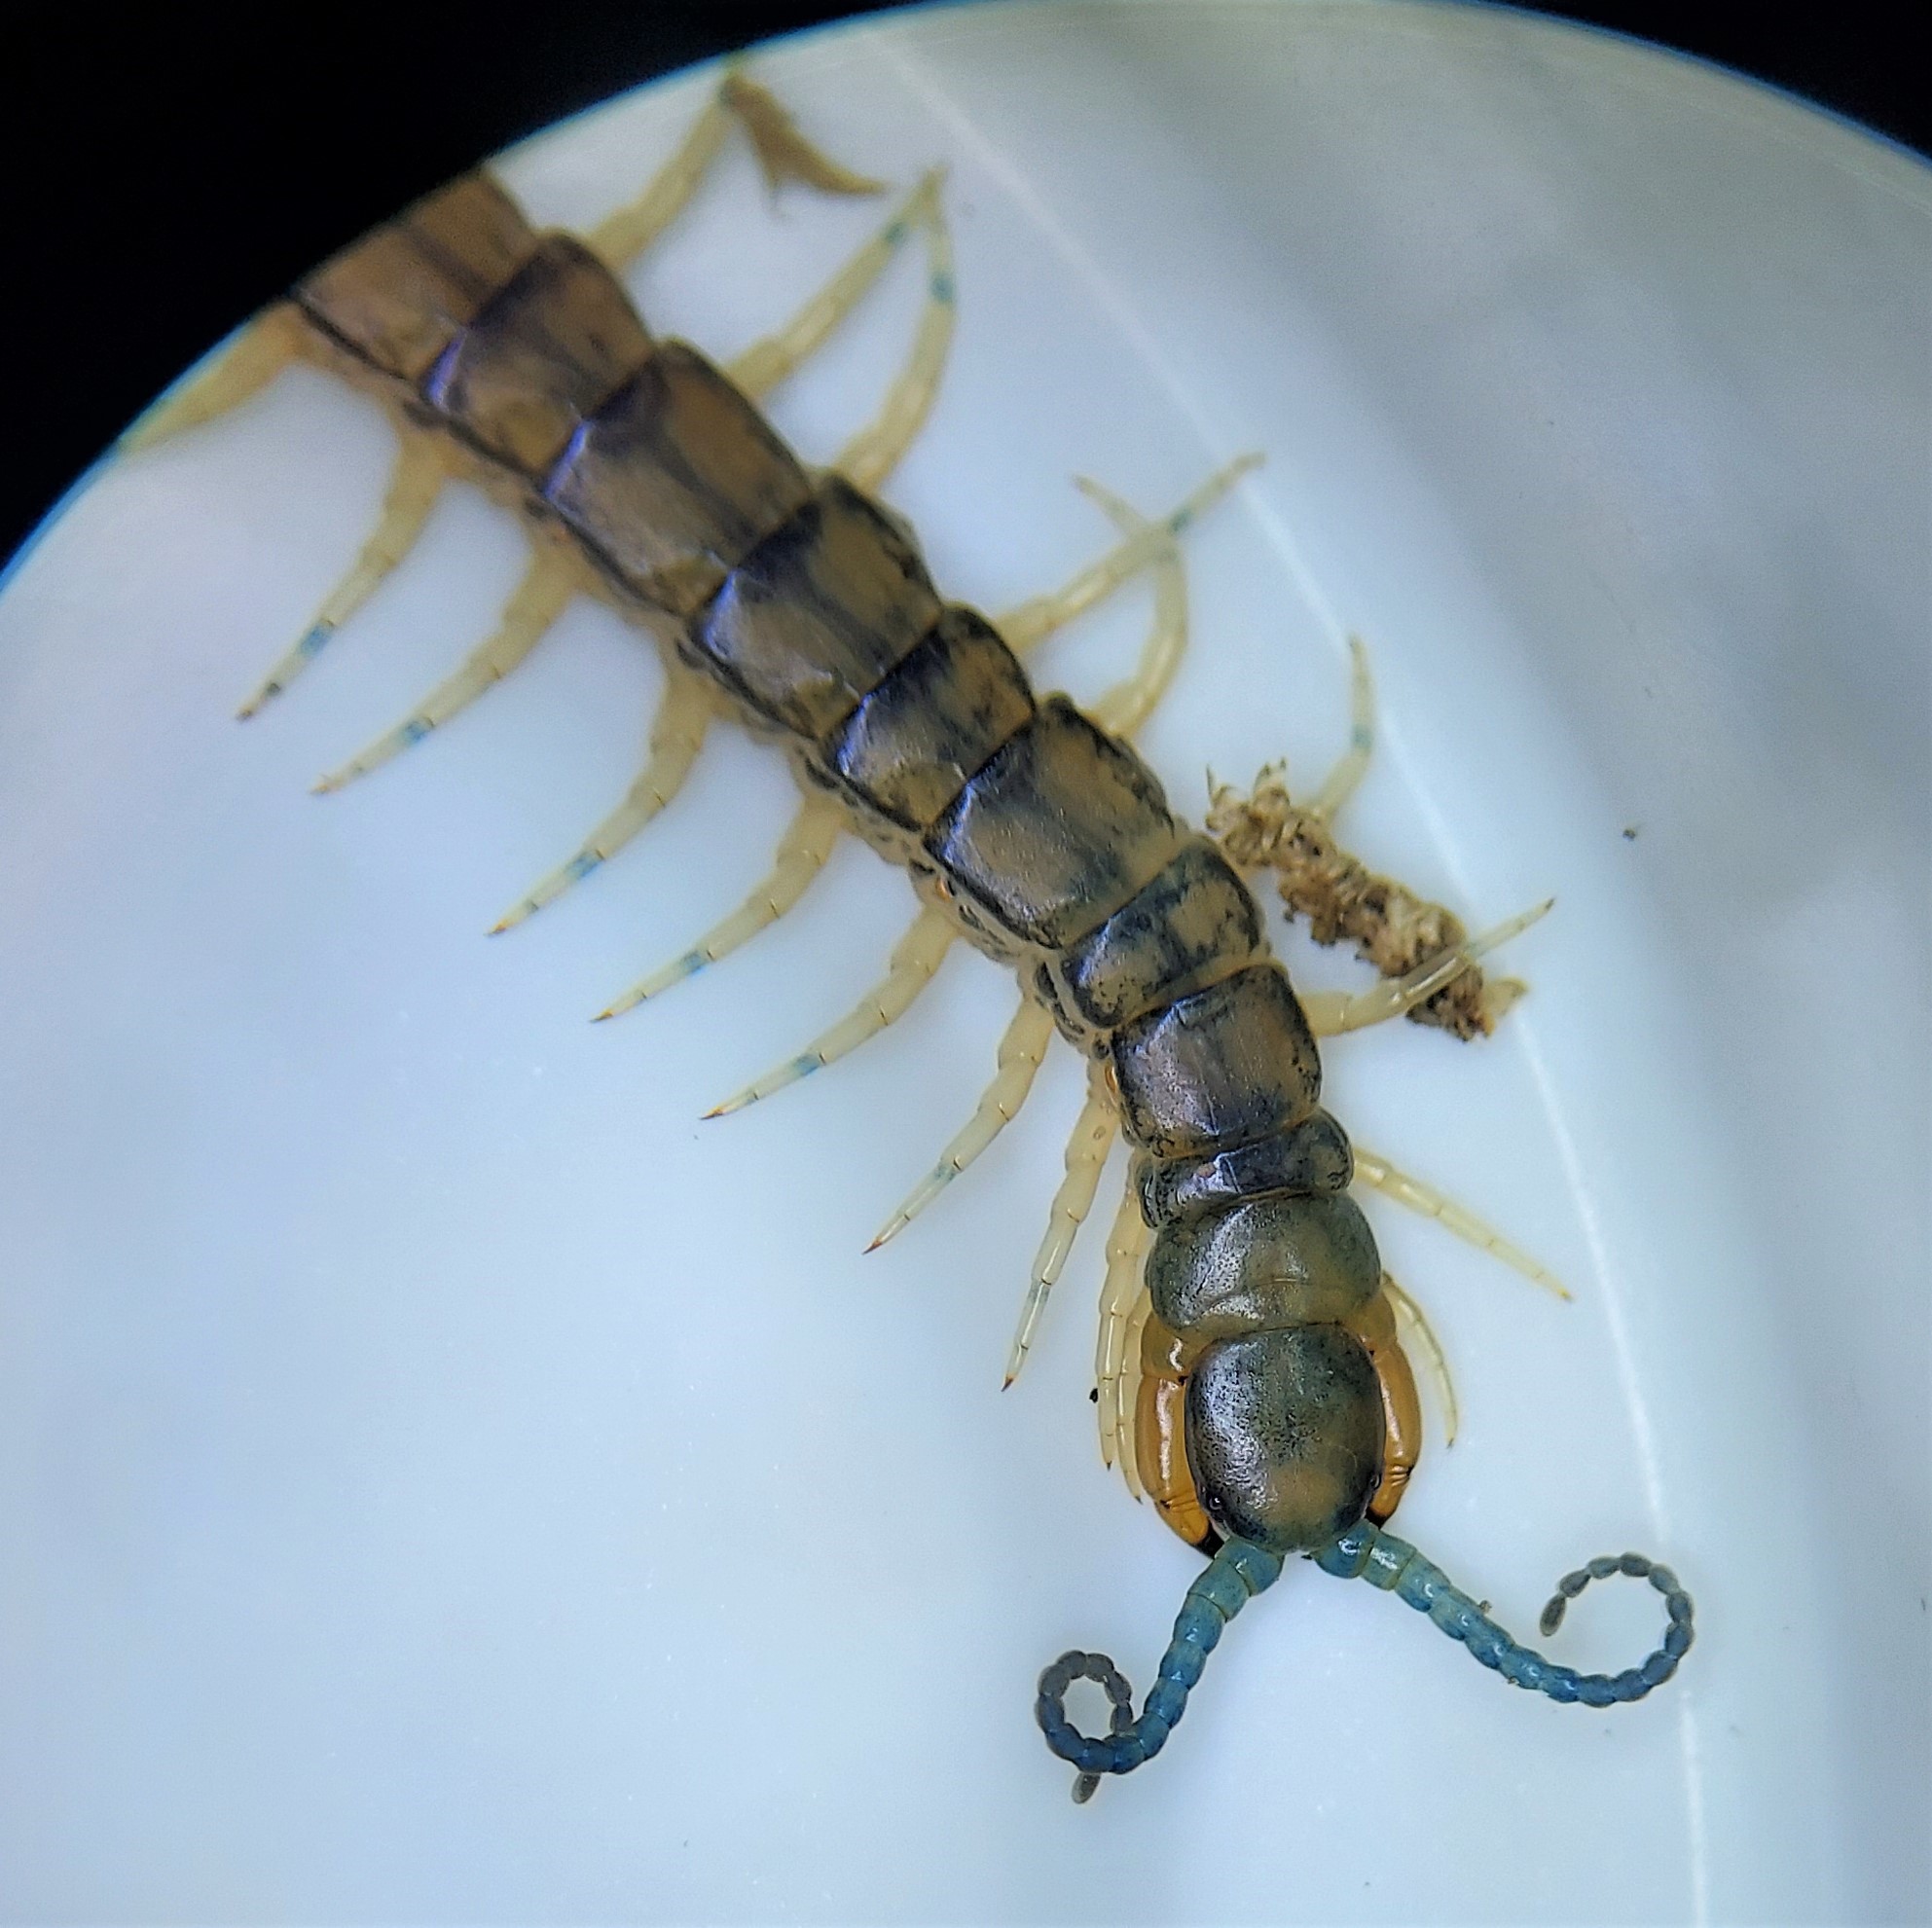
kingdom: Animalia
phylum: Arthropoda
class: Chilopoda
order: Scolopendromorpha
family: Scolopendridae
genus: Hemiscolopendra
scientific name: Hemiscolopendra marginata
